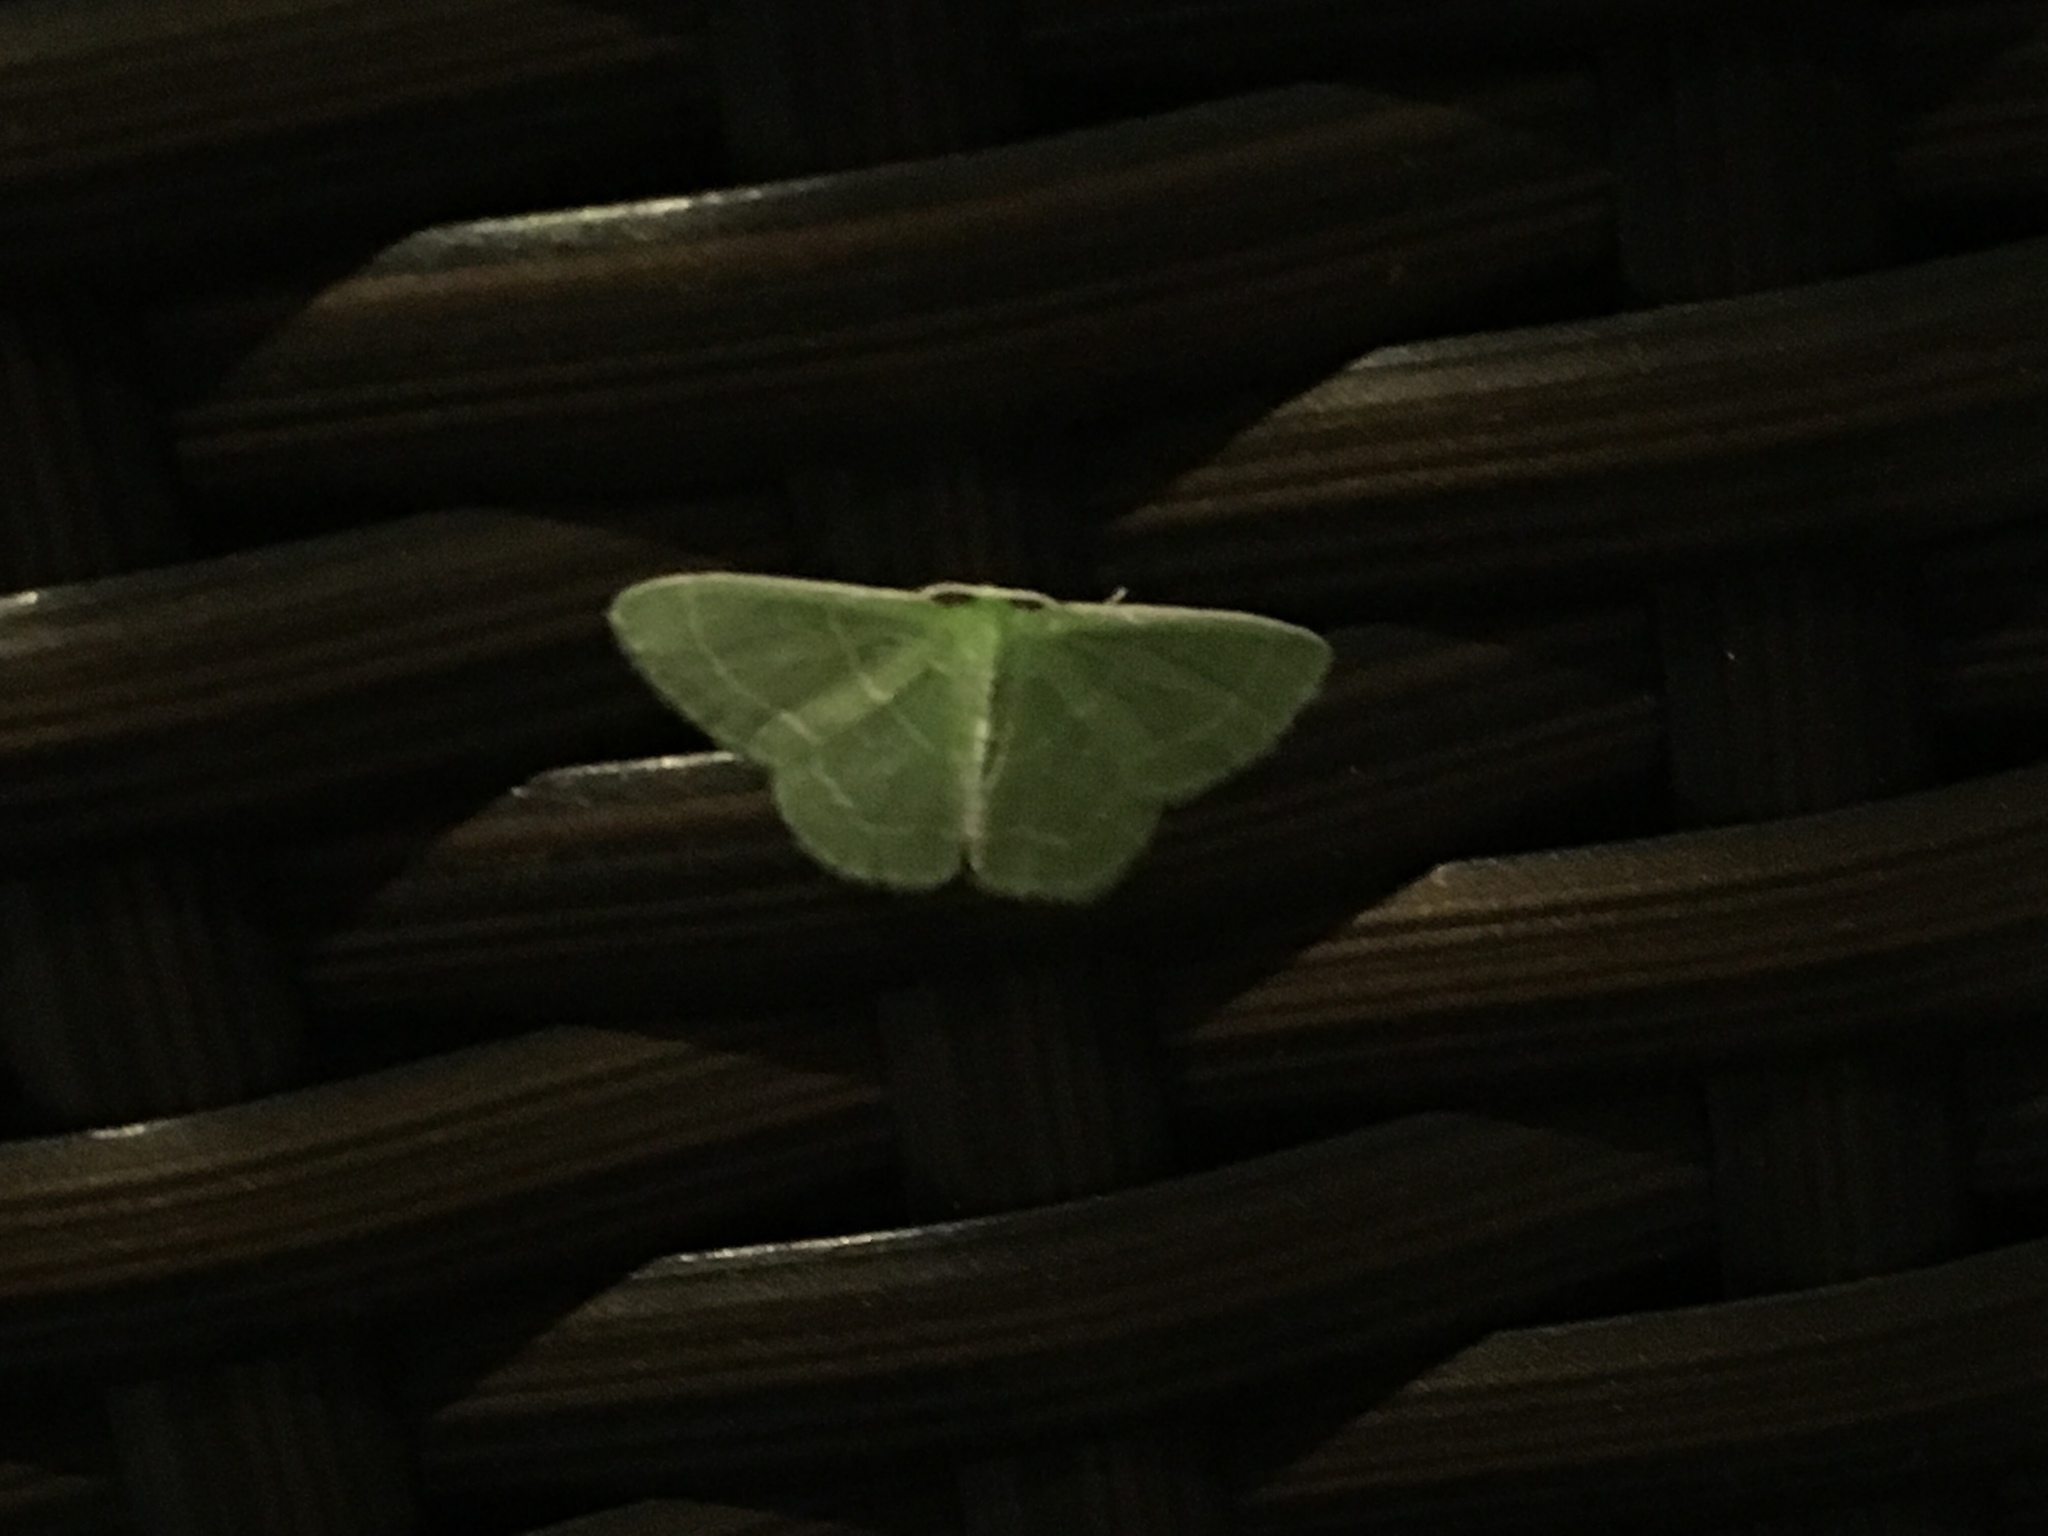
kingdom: Animalia
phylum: Arthropoda
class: Insecta
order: Lepidoptera
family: Geometridae
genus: Synchlora
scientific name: Synchlora aerata
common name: Wavy-lined emerald
